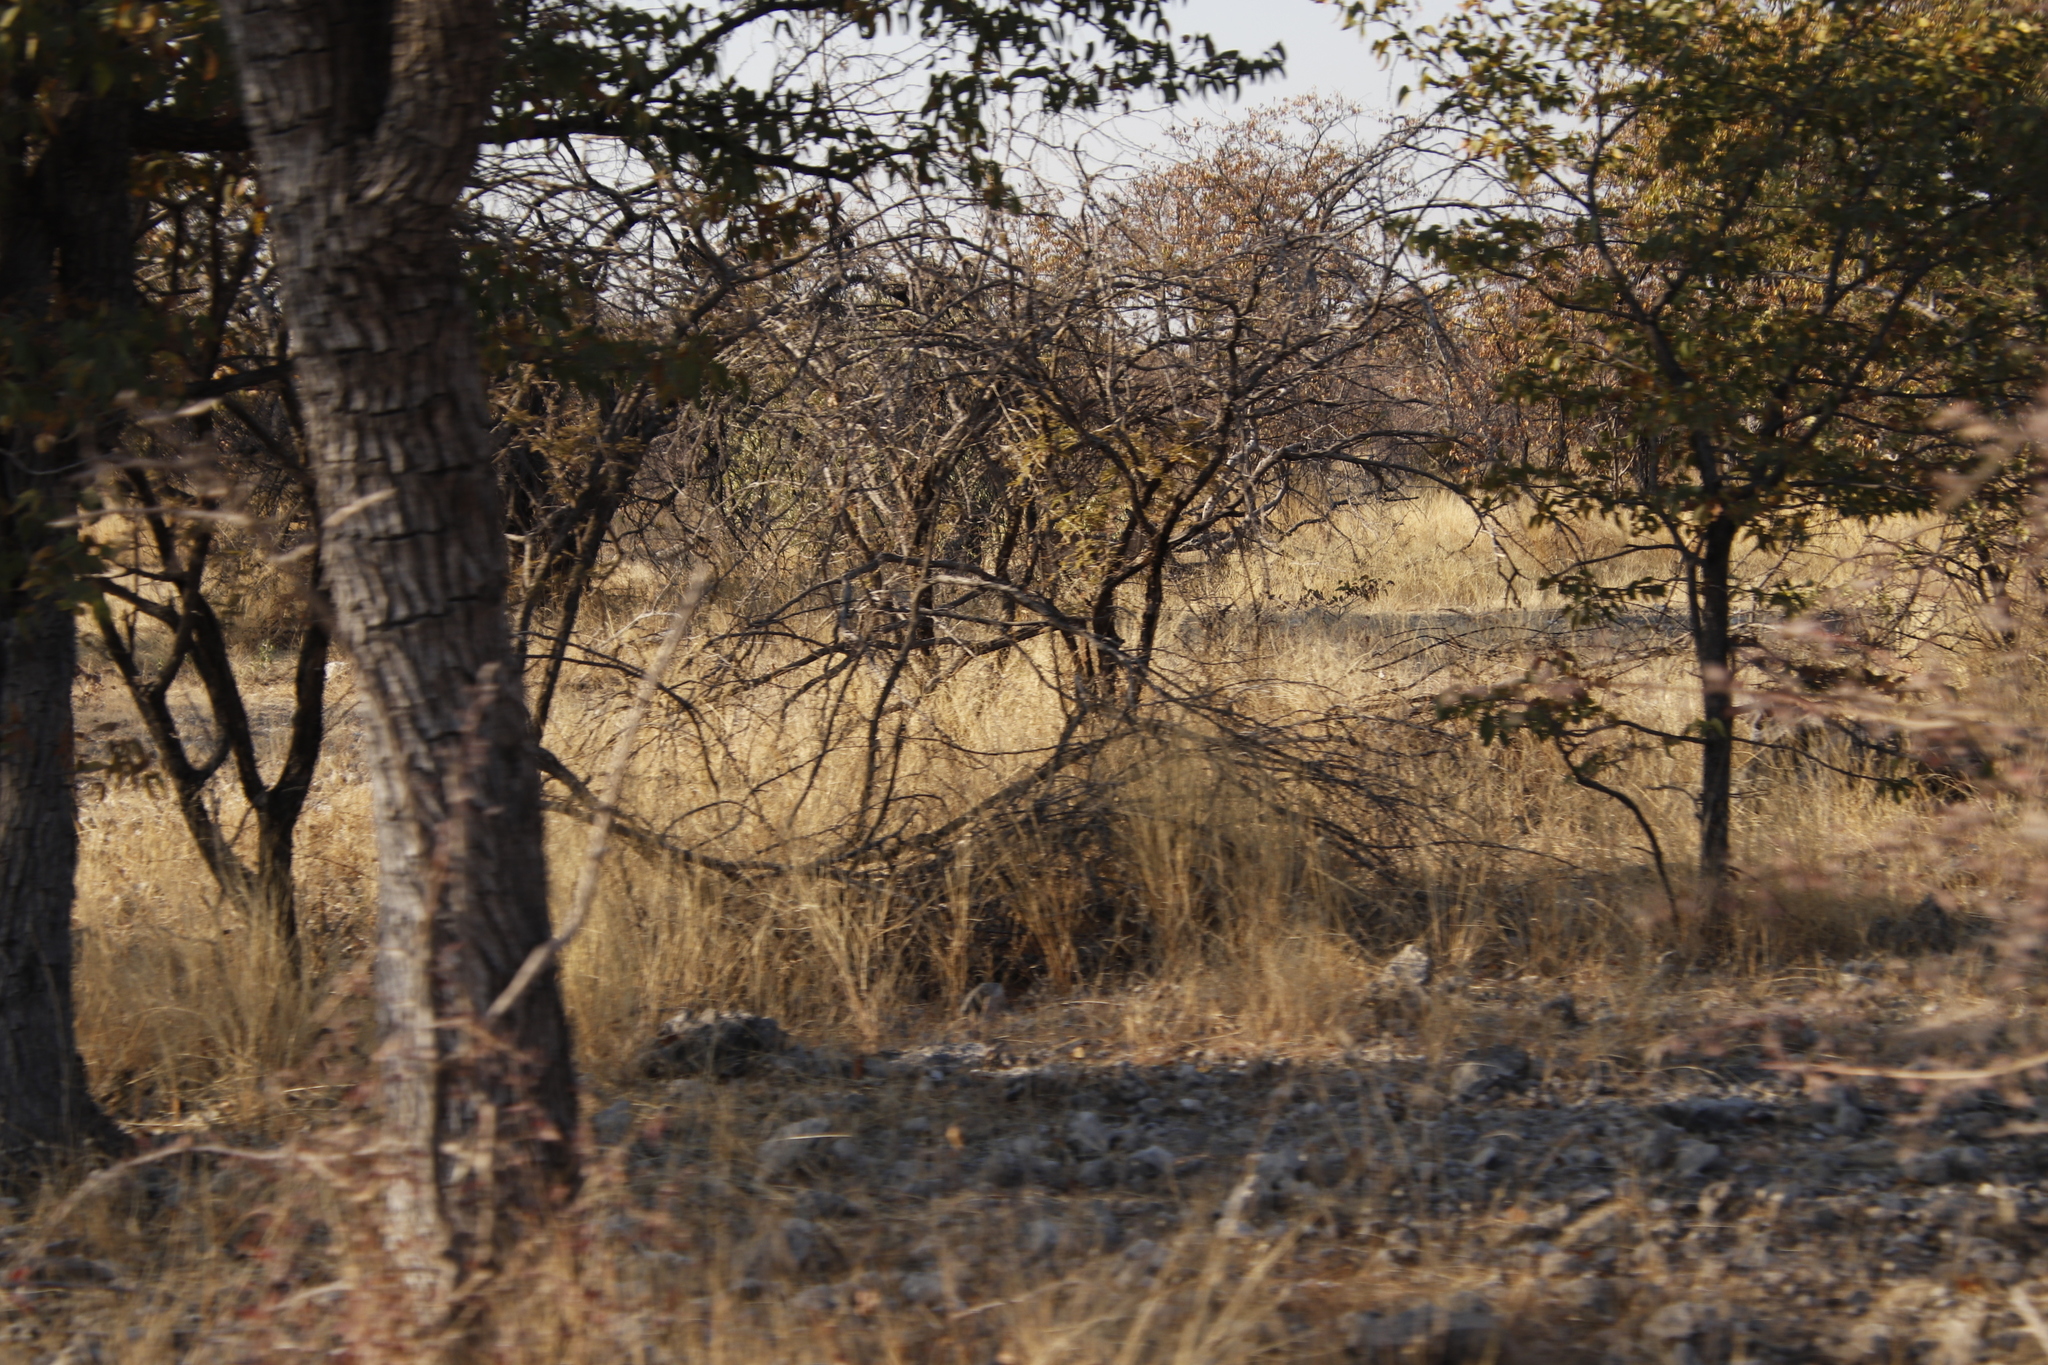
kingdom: Plantae
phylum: Tracheophyta
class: Magnoliopsida
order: Fabales
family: Fabaceae
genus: Colophospermum
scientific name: Colophospermum mopane
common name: Mopane
